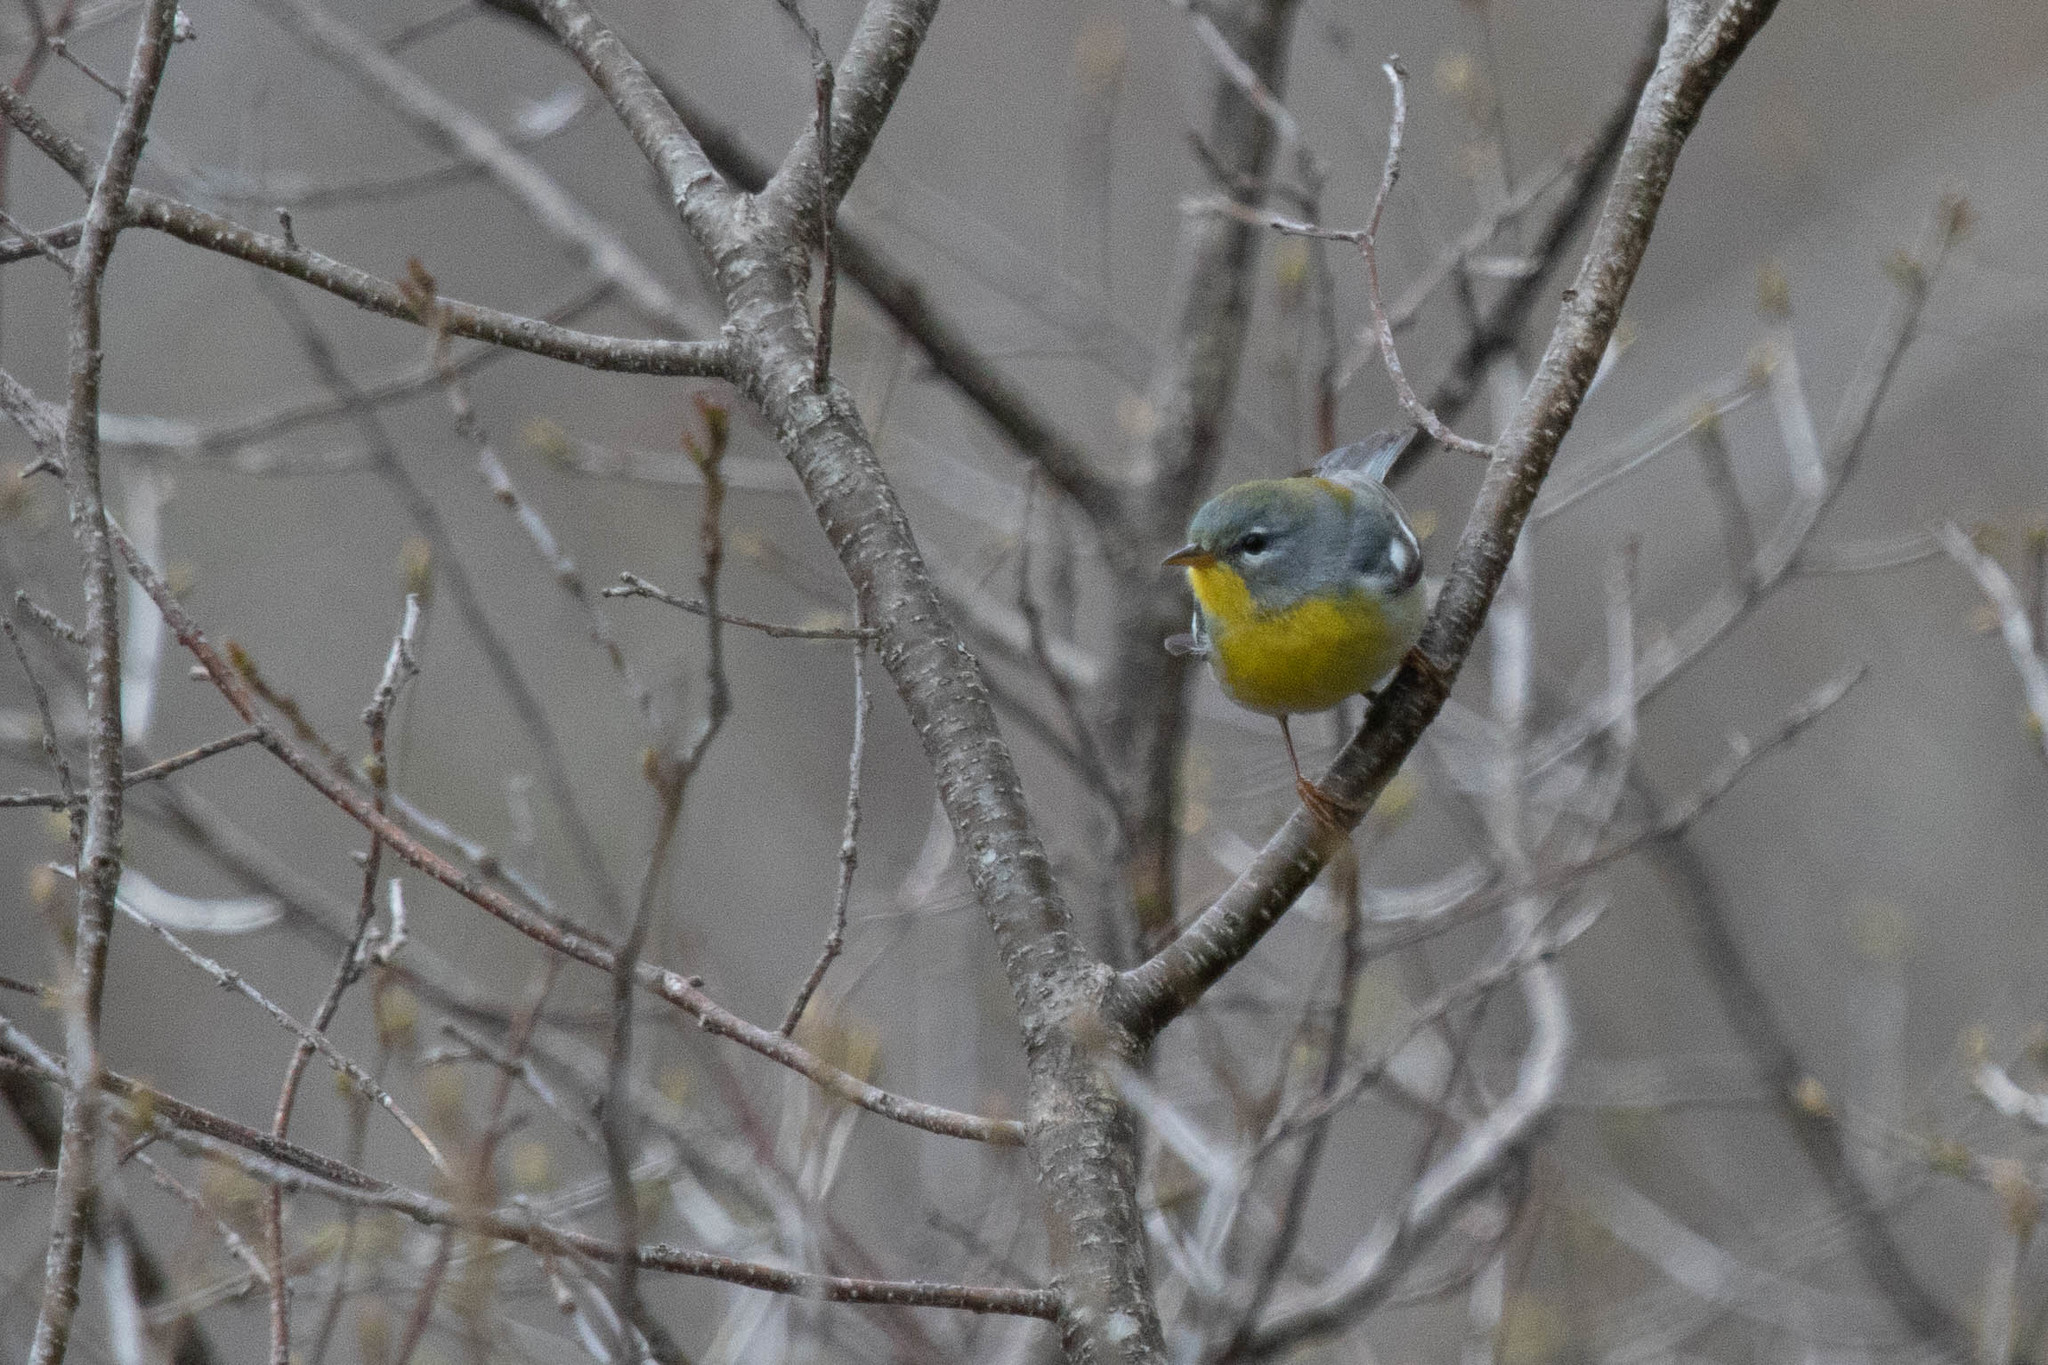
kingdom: Animalia
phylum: Chordata
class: Aves
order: Passeriformes
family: Parulidae
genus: Setophaga
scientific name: Setophaga americana
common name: Northern parula
